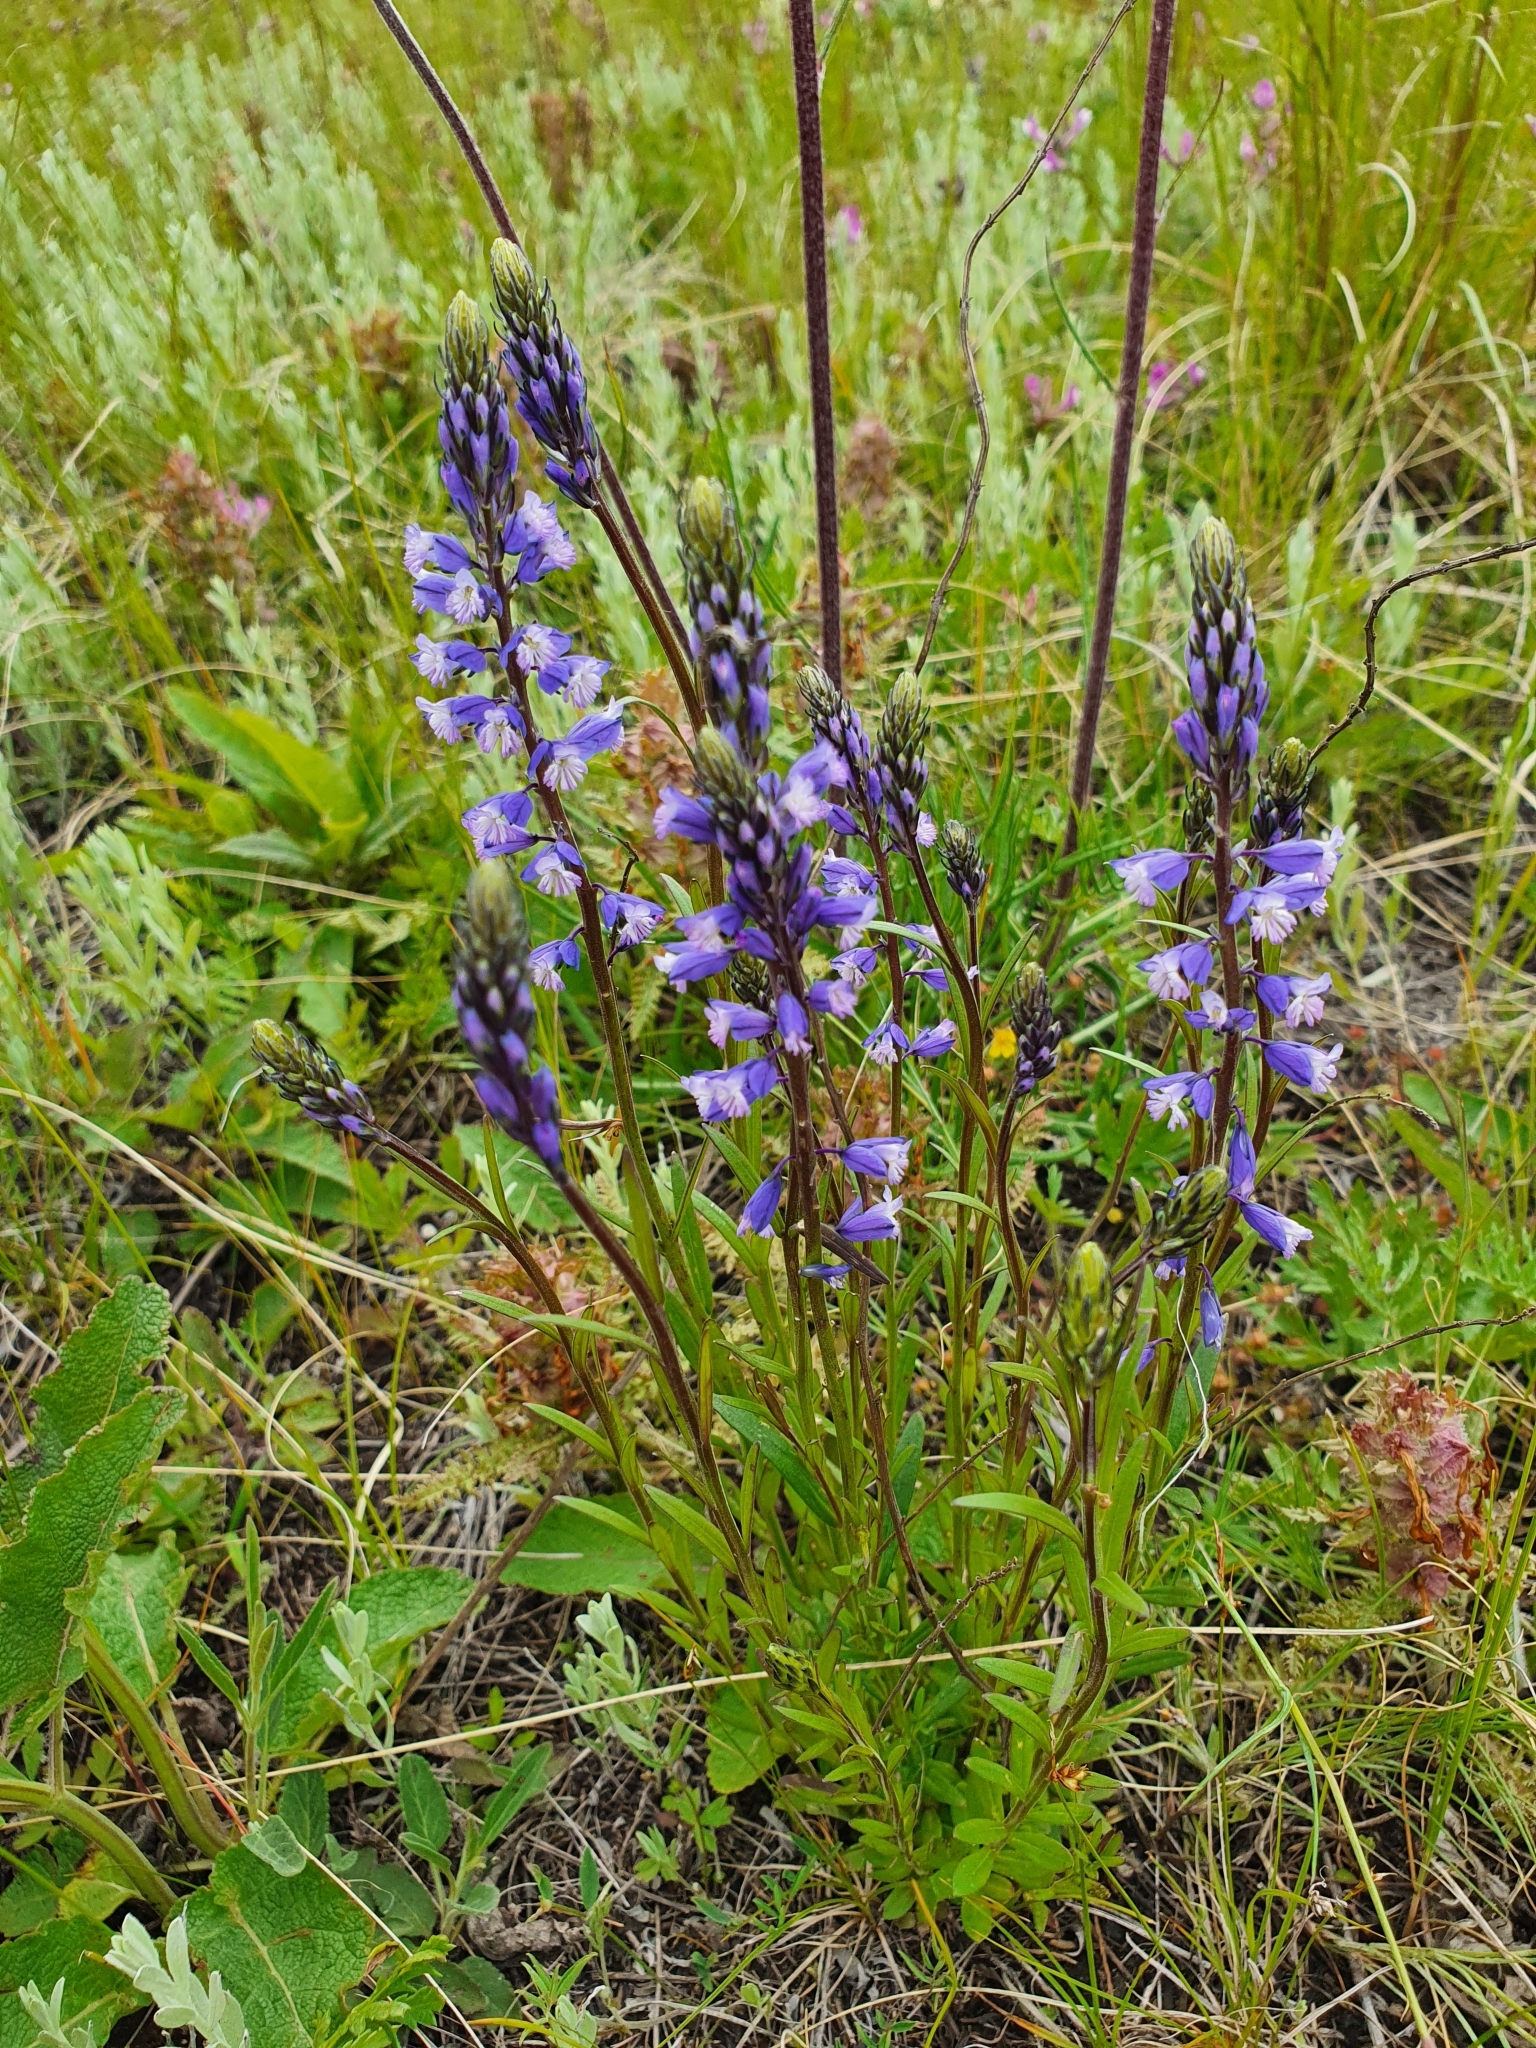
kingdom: Plantae
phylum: Tracheophyta
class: Magnoliopsida
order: Fabales
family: Polygalaceae
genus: Polygala
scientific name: Polygala comosa
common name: Tufted milkwort
